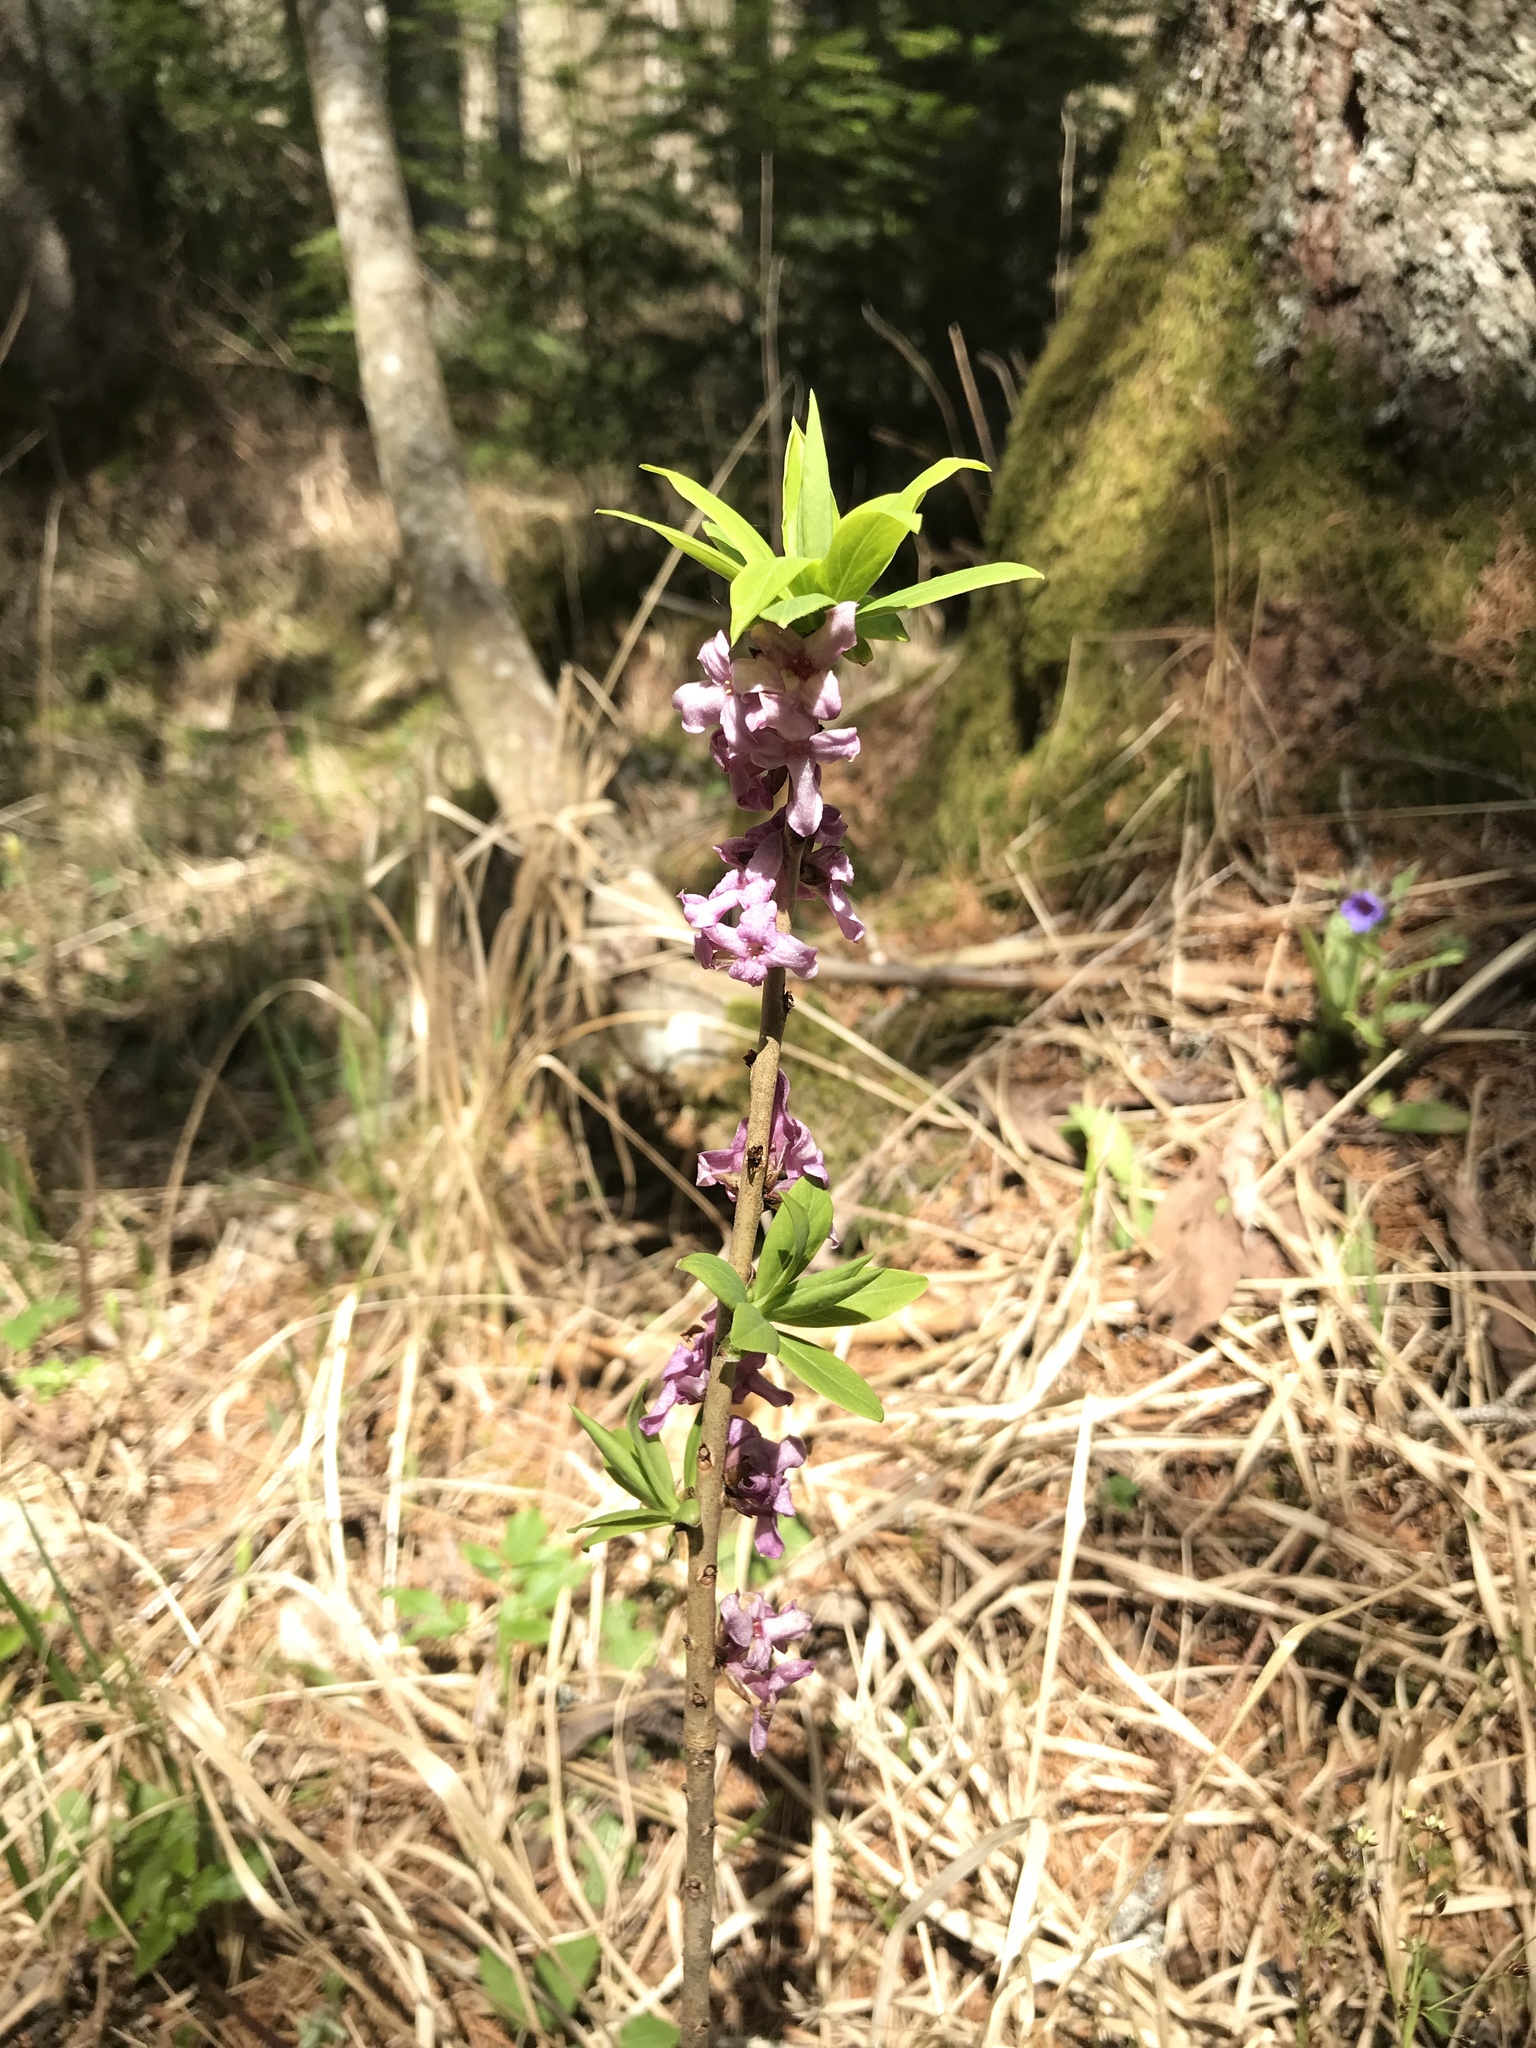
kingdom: Plantae
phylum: Tracheophyta
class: Magnoliopsida
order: Malvales
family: Thymelaeaceae
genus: Daphne
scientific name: Daphne mezereum
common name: Mezereon
